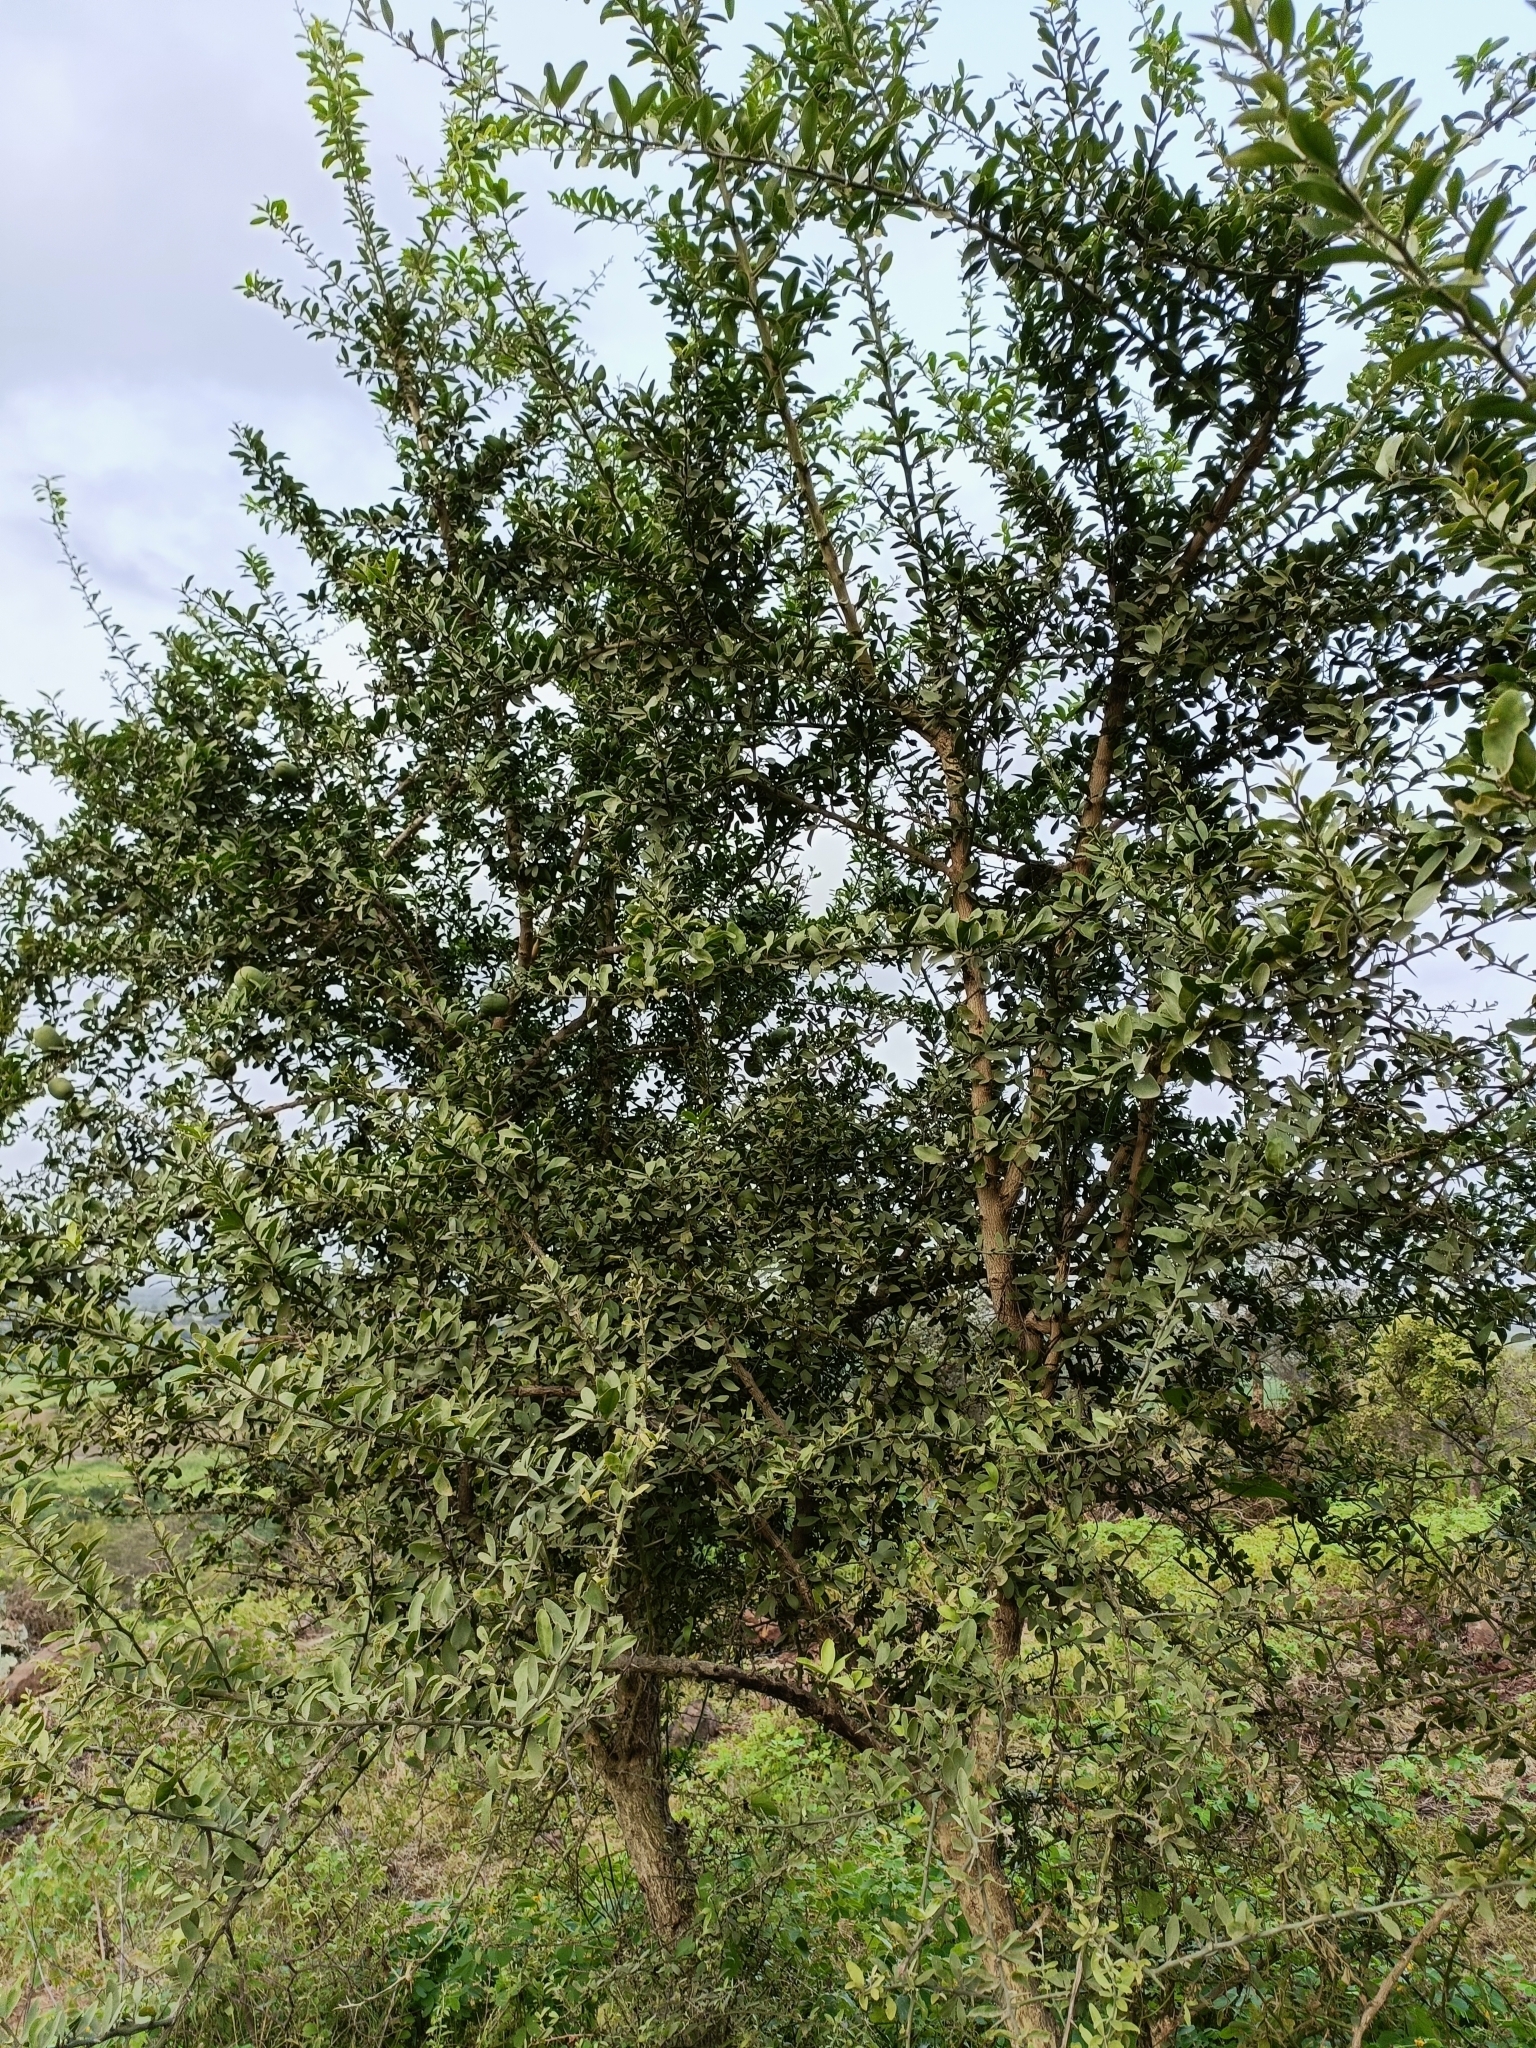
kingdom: Plantae
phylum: Tracheophyta
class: Magnoliopsida
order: Zygophyllales
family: Zygophyllaceae
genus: Balanites
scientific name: Balanites aegyptiaca
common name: Balanites
